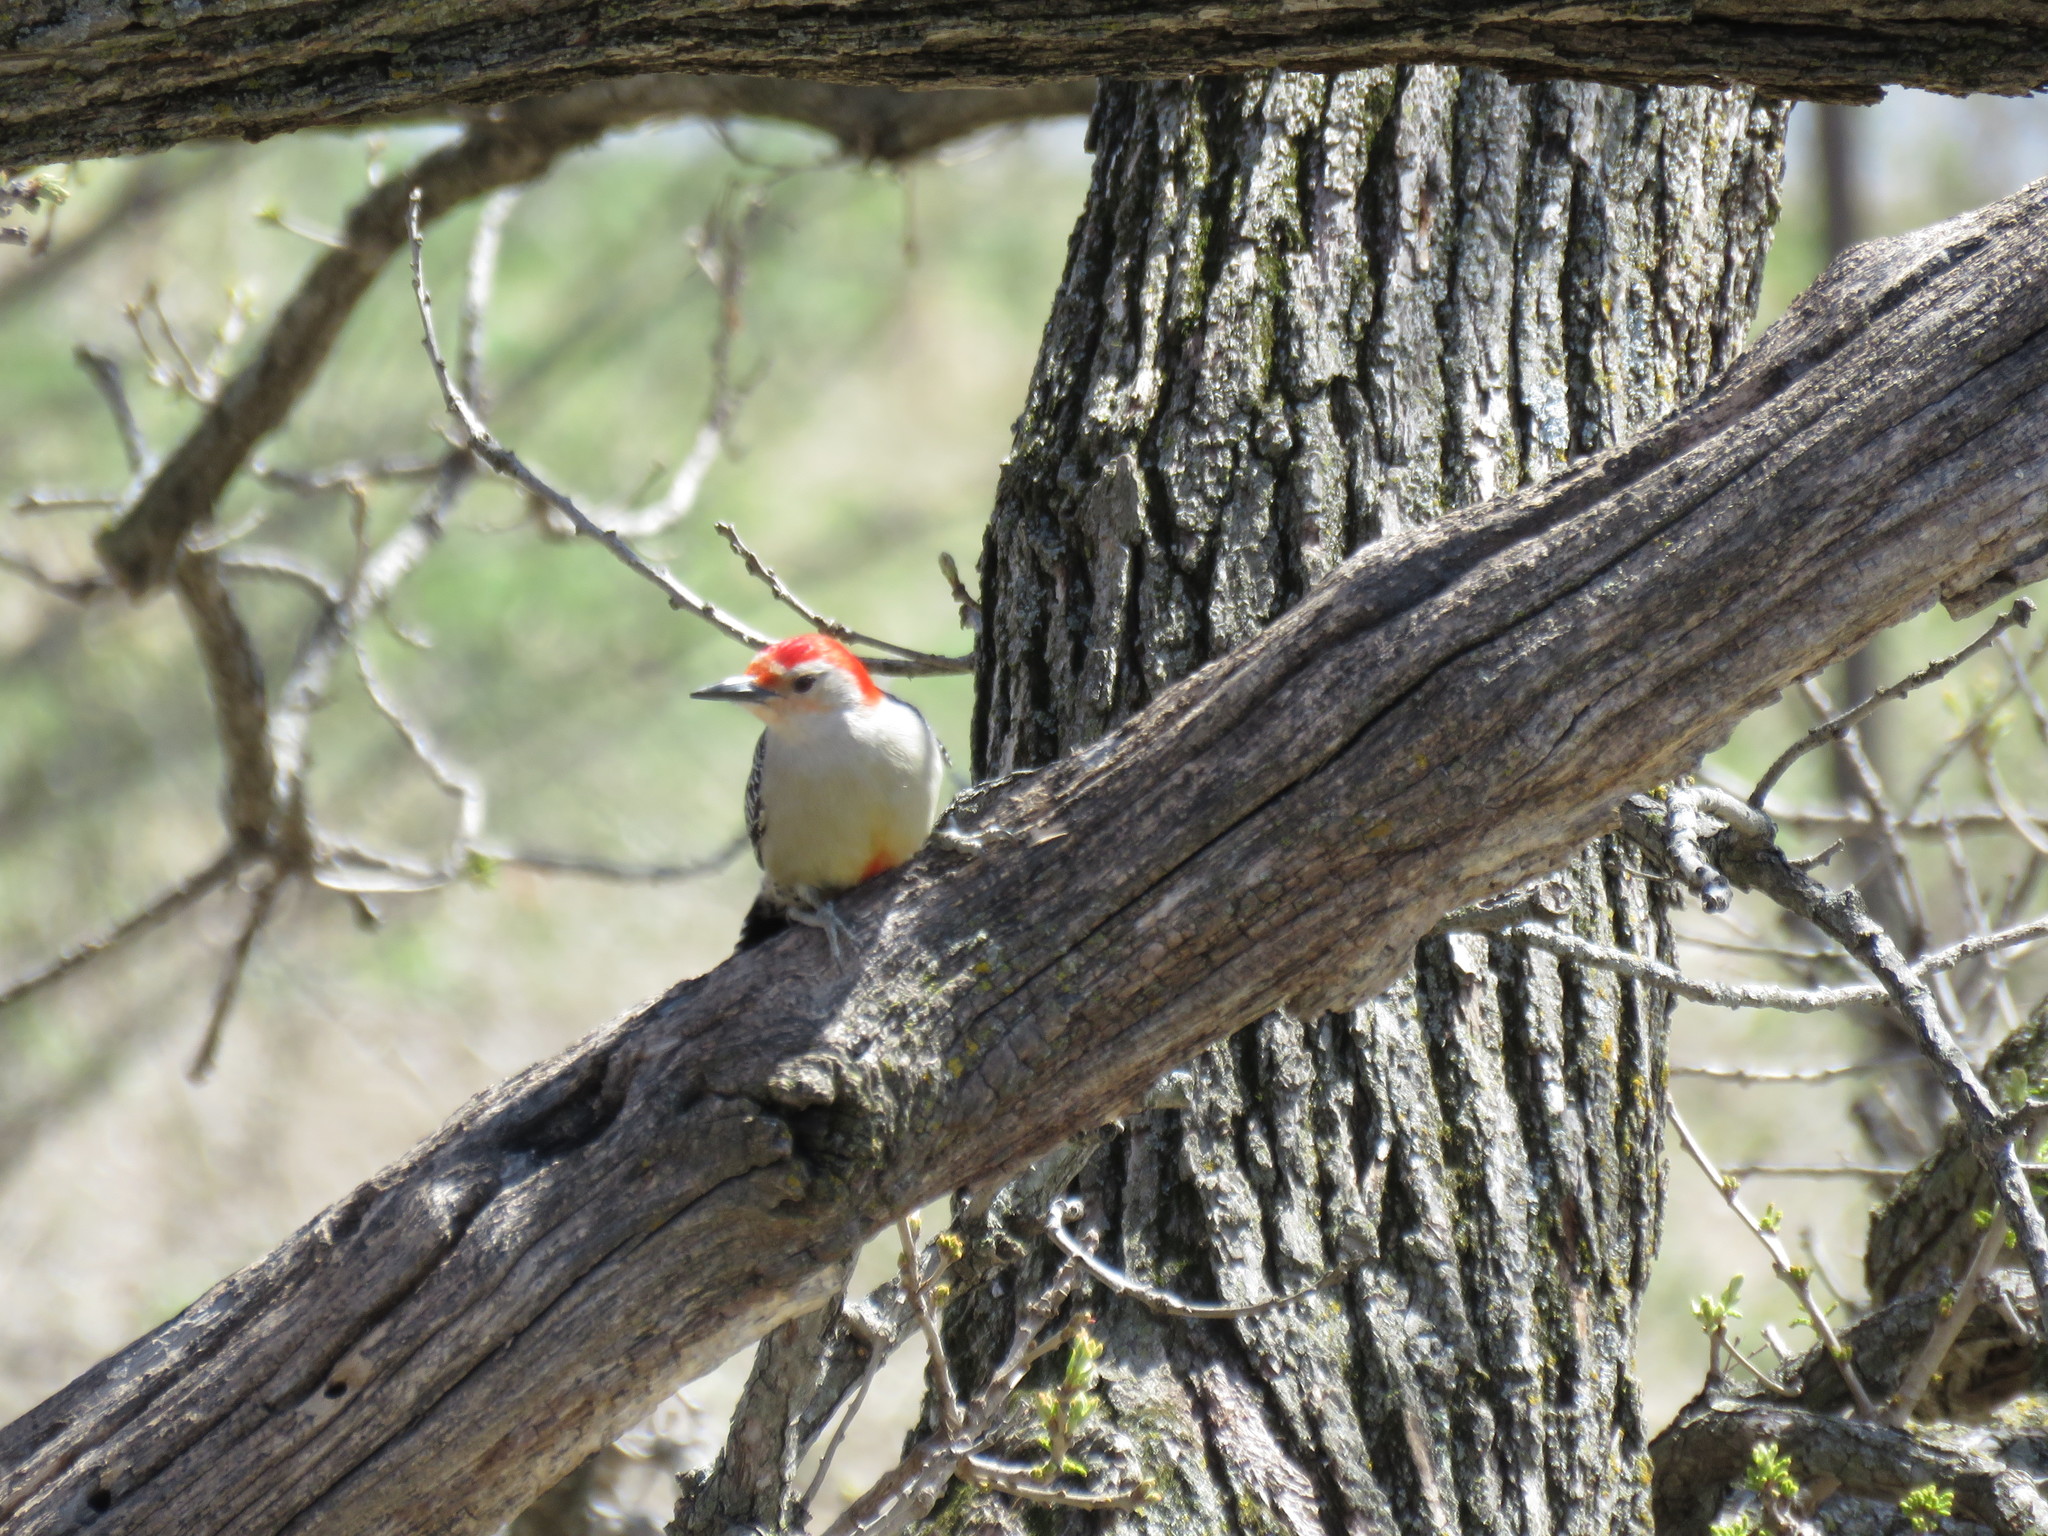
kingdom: Animalia
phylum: Chordata
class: Aves
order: Piciformes
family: Picidae
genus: Melanerpes
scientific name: Melanerpes carolinus
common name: Red-bellied woodpecker
